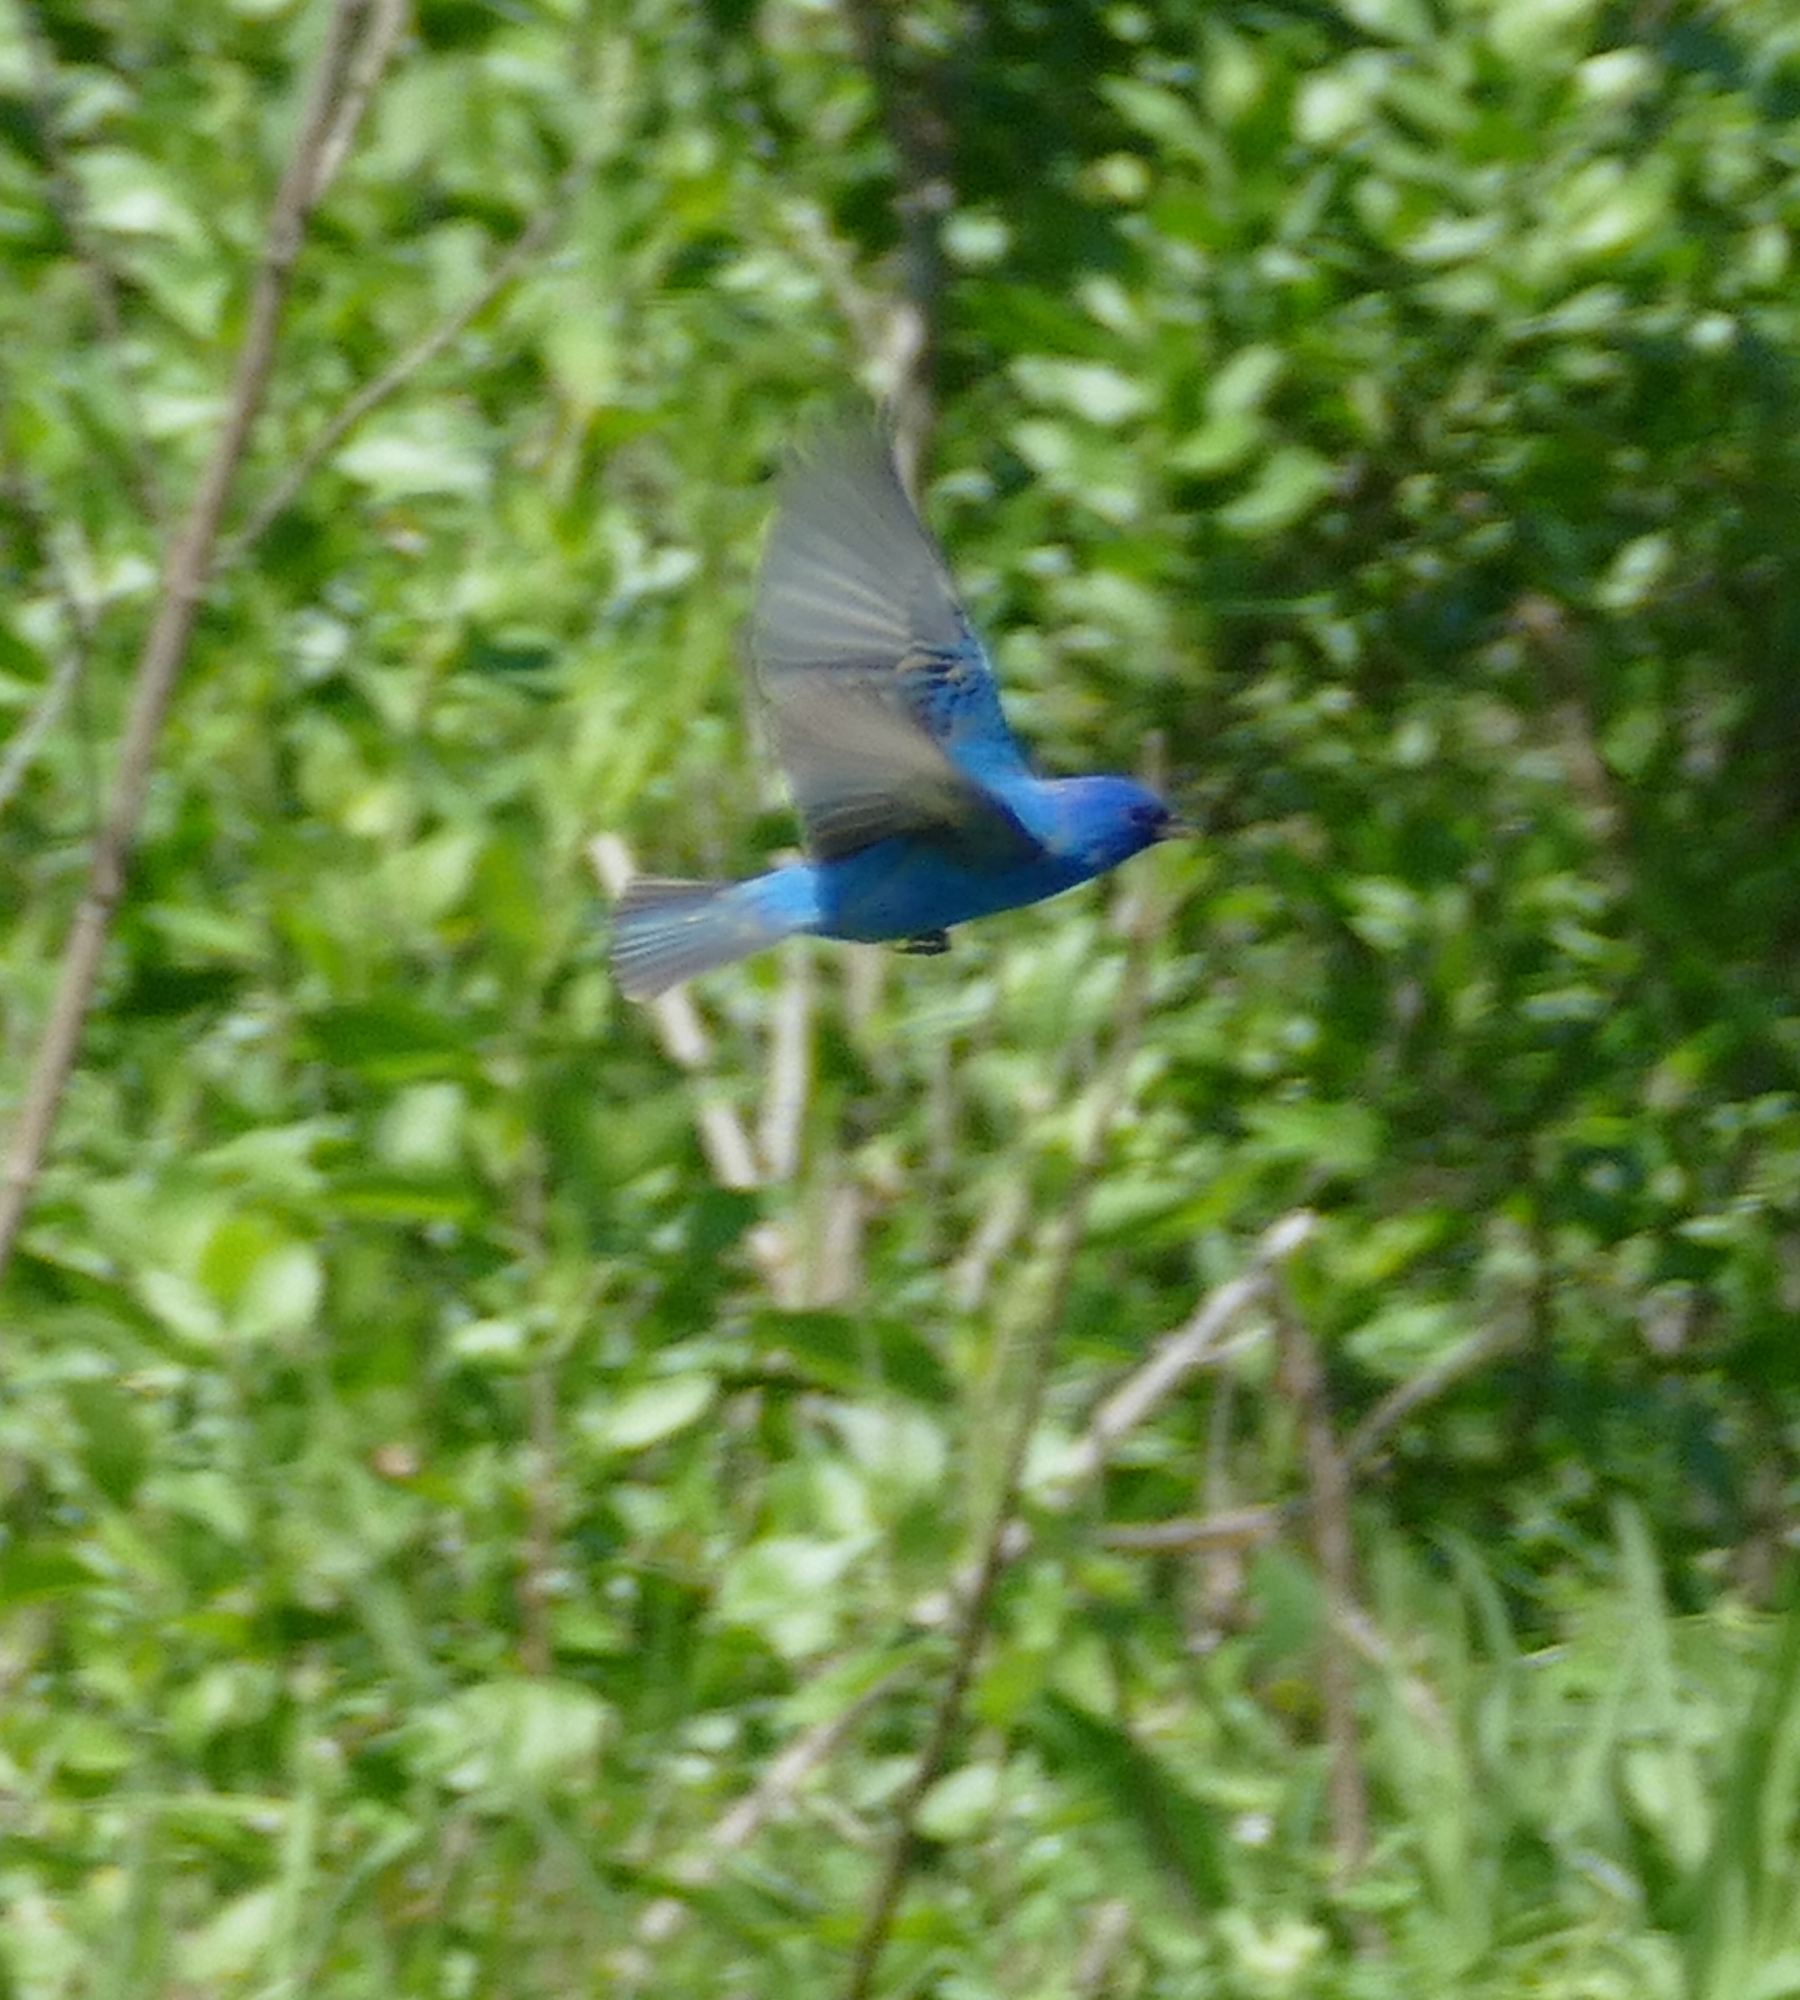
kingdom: Animalia
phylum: Chordata
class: Aves
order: Passeriformes
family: Cardinalidae
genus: Passerina
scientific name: Passerina cyanea
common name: Indigo bunting
